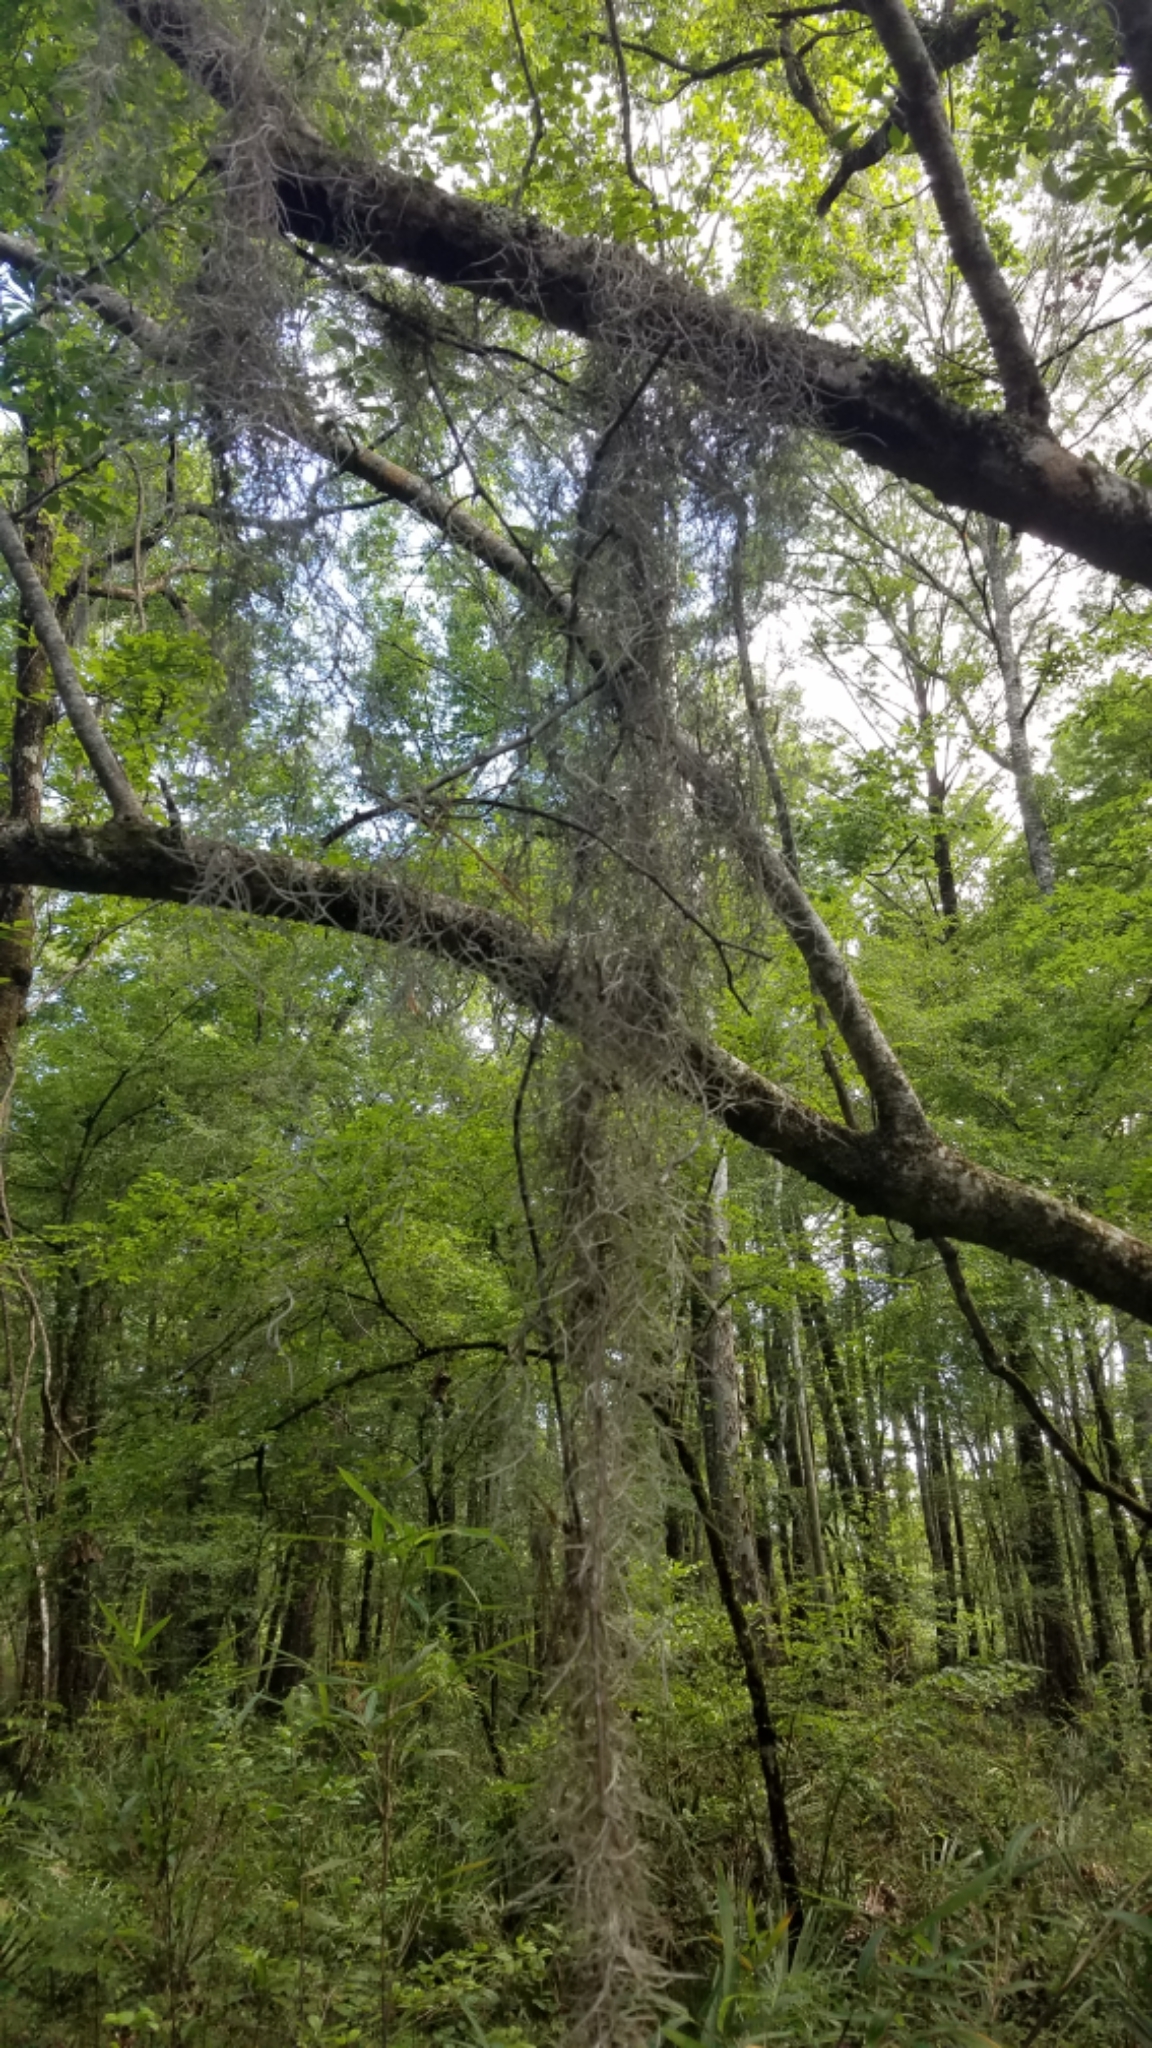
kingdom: Plantae
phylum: Tracheophyta
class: Liliopsida
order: Poales
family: Bromeliaceae
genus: Tillandsia
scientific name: Tillandsia usneoides
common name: Spanish moss
